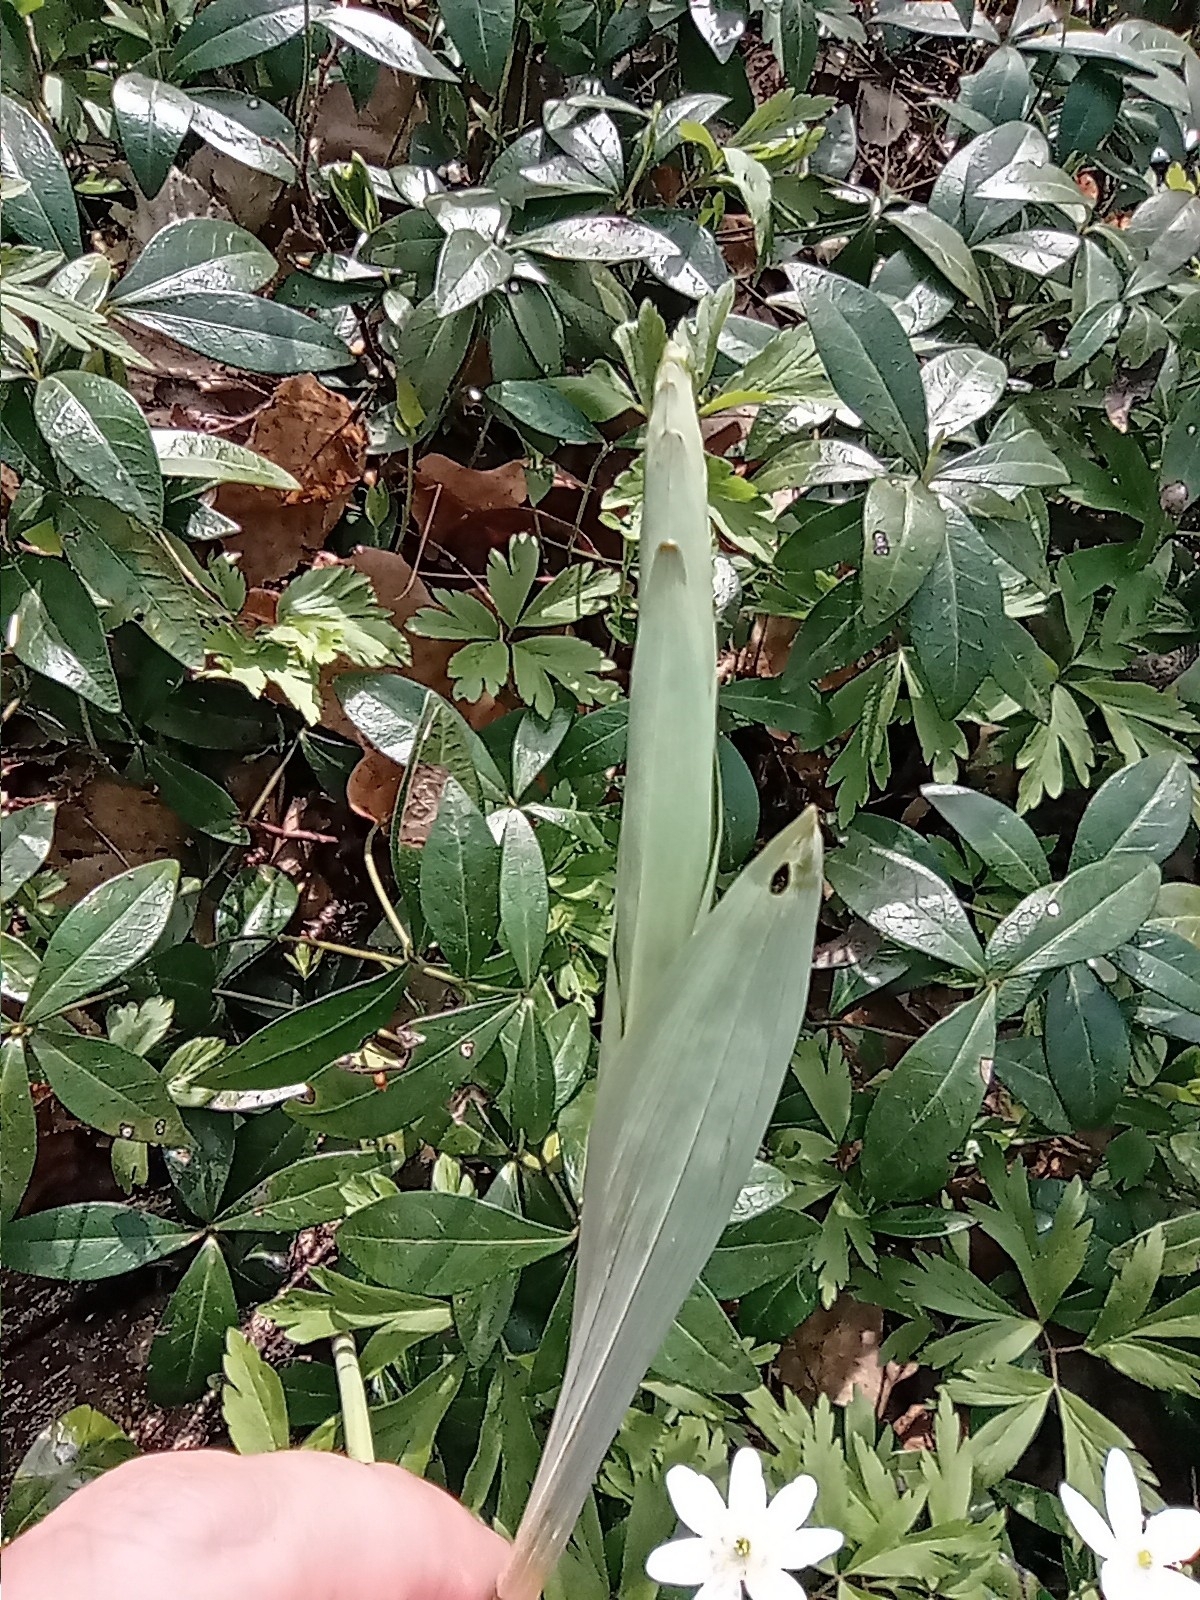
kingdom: Plantae
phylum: Tracheophyta
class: Liliopsida
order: Asparagales
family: Asparagaceae
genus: Polygonatum
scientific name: Polygonatum multiflorum
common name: Solomon's-seal
